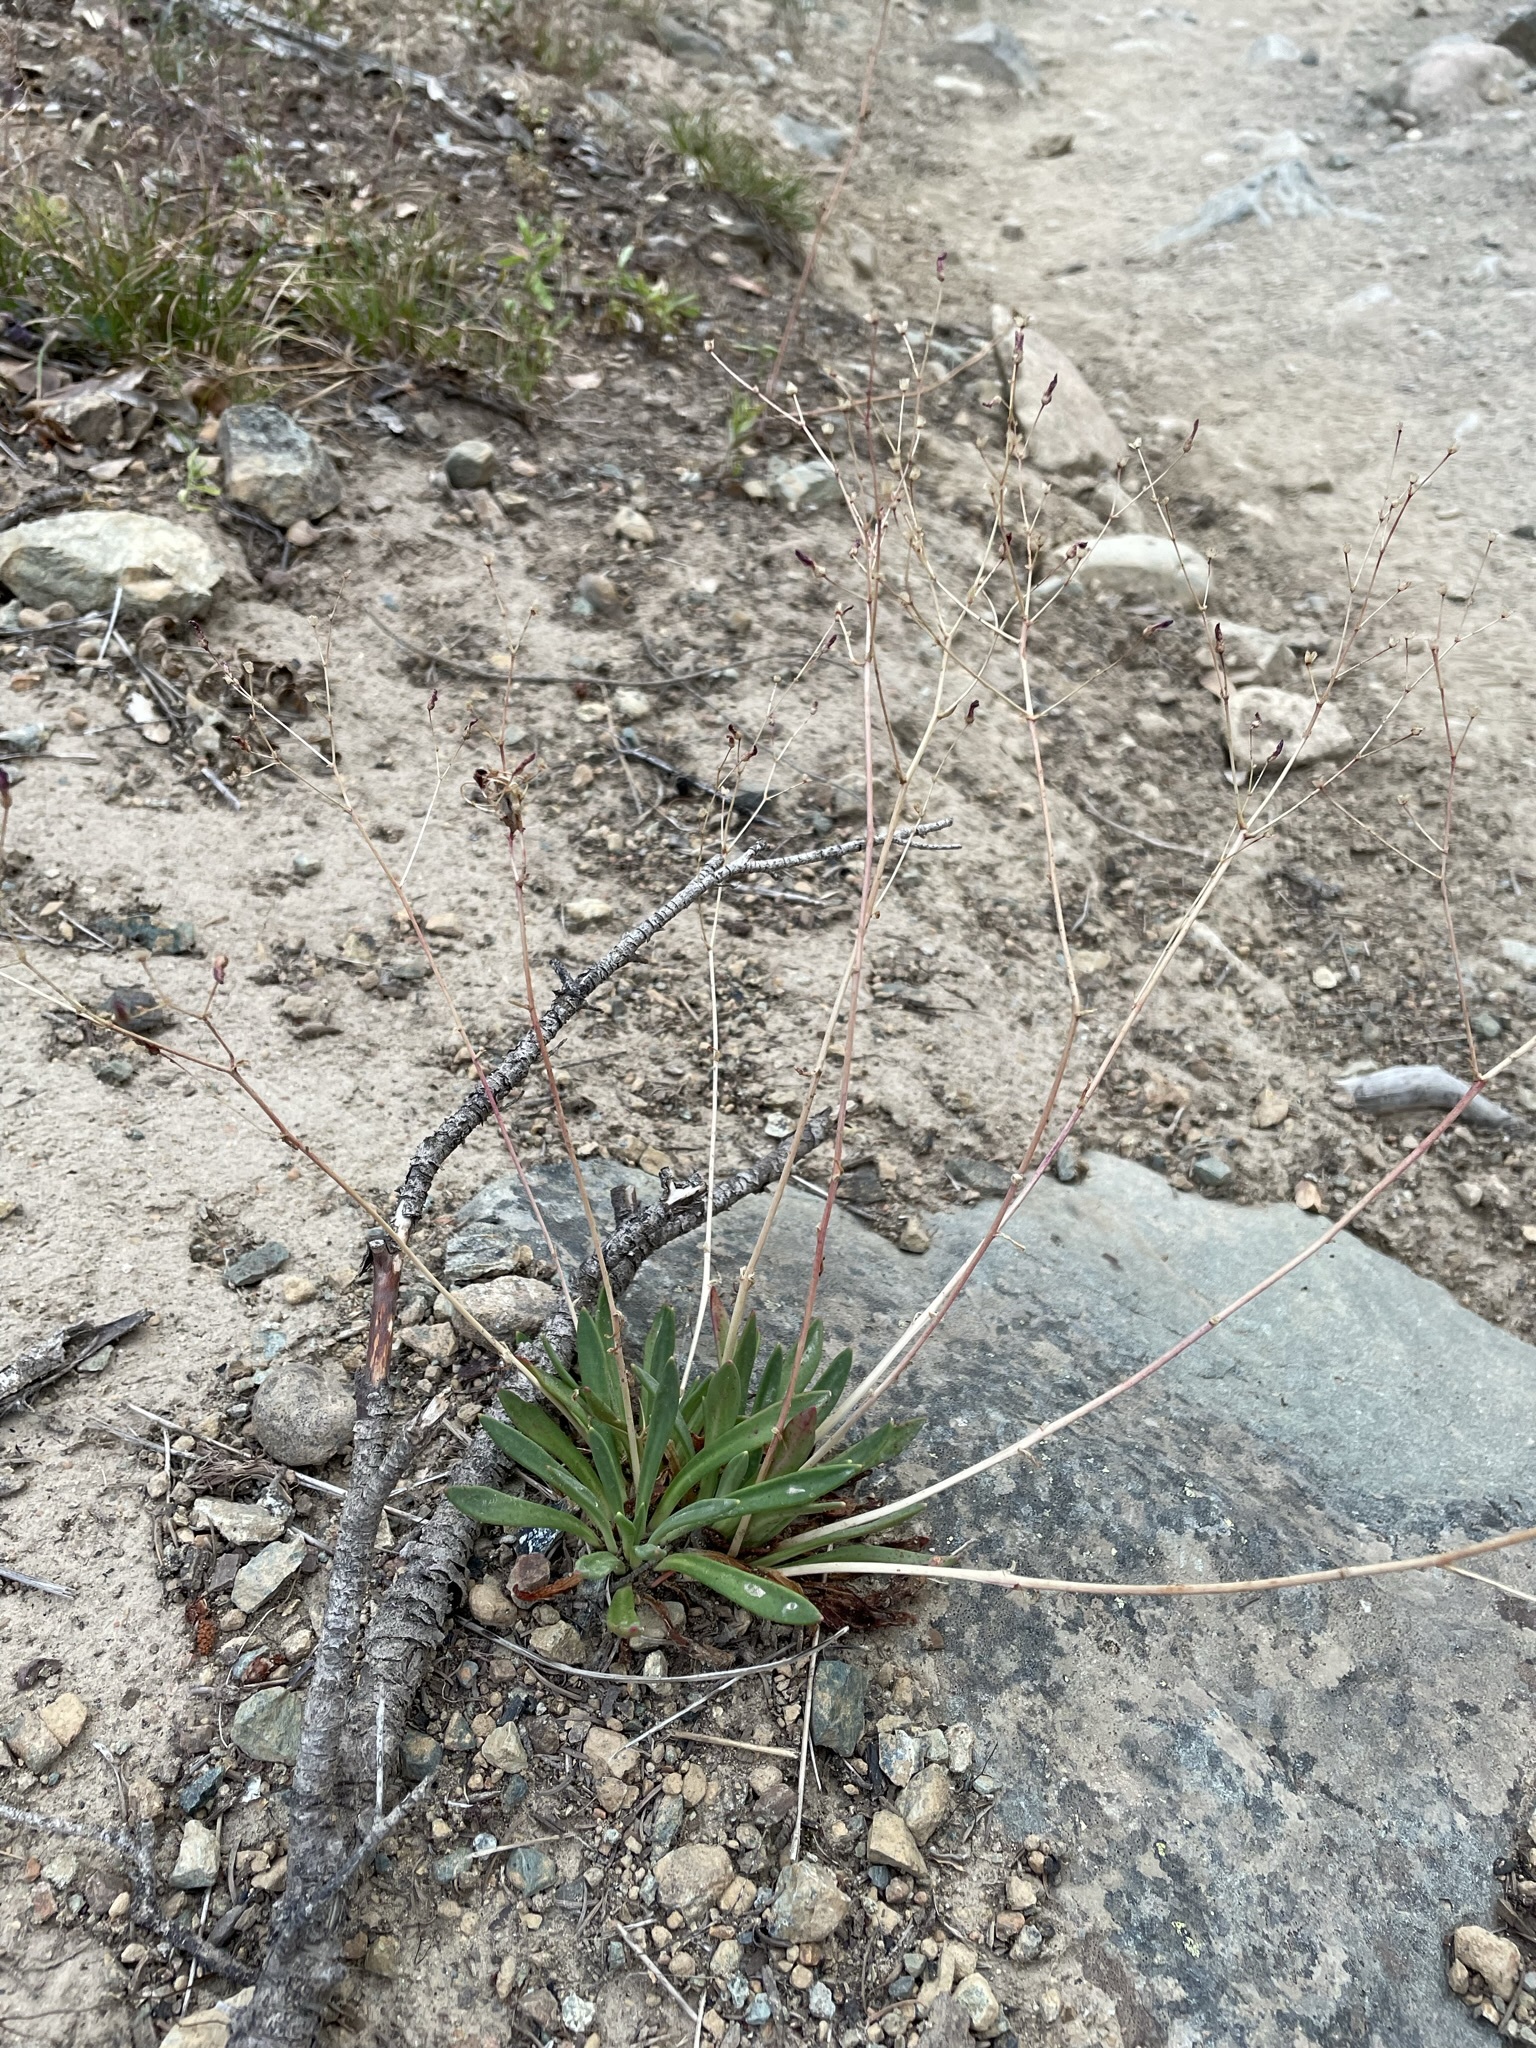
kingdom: Plantae
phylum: Tracheophyta
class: Magnoliopsida
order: Caryophyllales
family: Montiaceae
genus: Lewisia
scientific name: Lewisia columbiana
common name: Columbia lewisia
